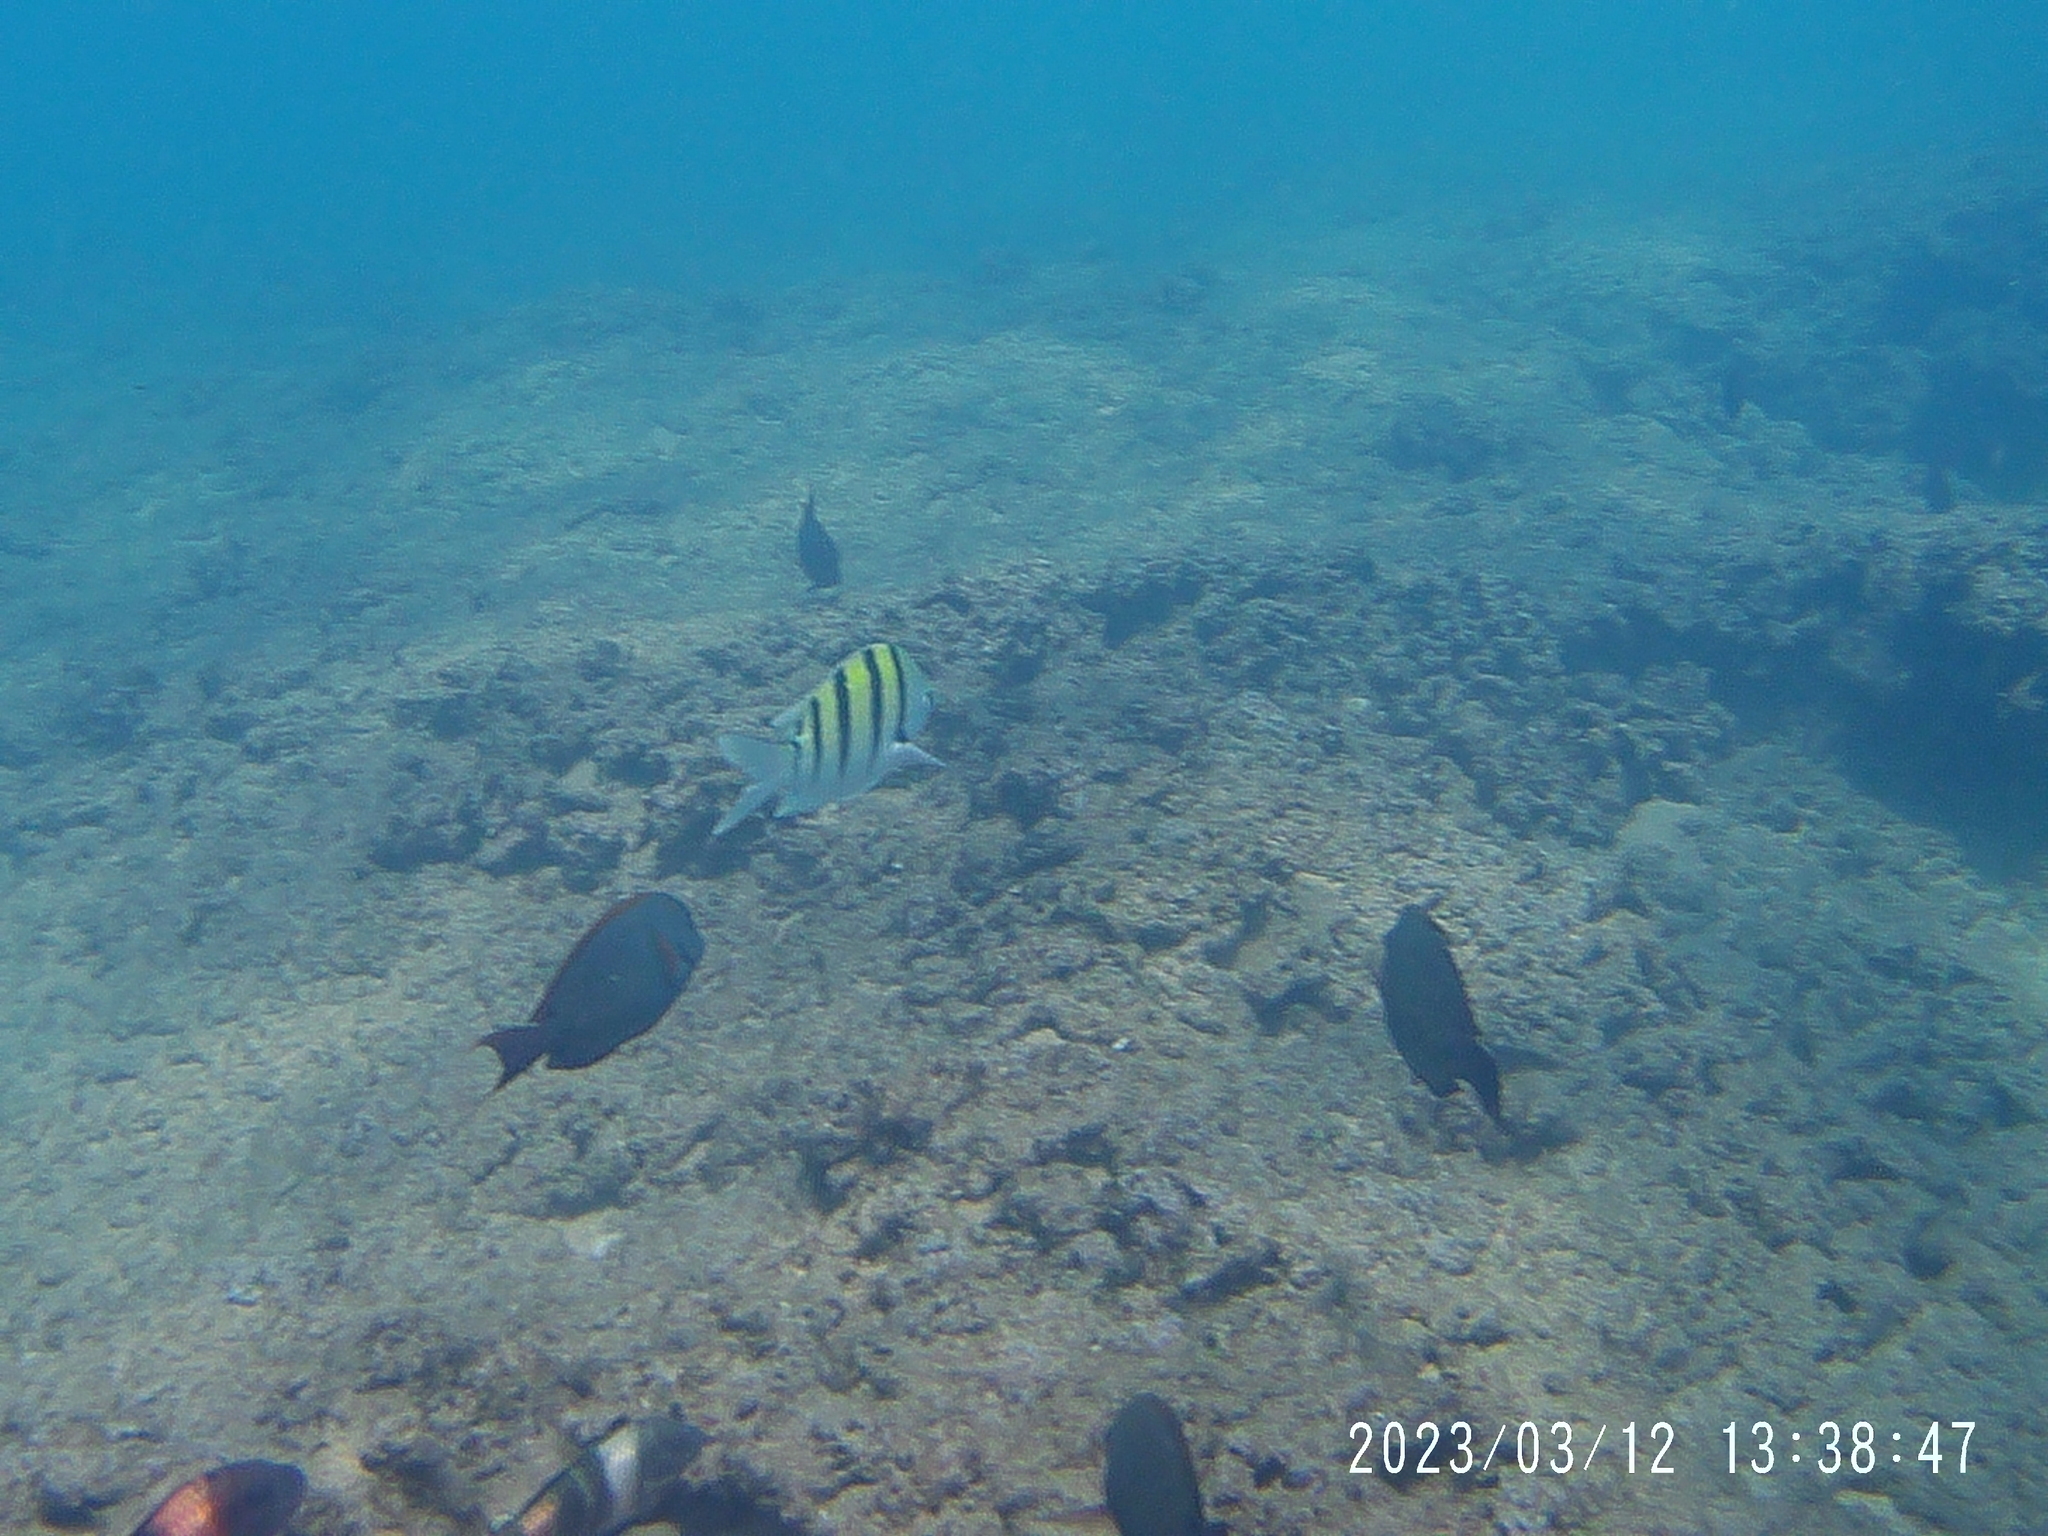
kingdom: Animalia
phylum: Chordata
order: Perciformes
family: Acanthuridae
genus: Acanthurus
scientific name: Acanthurus nigrofuscus
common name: Blackspot surgeonfish
